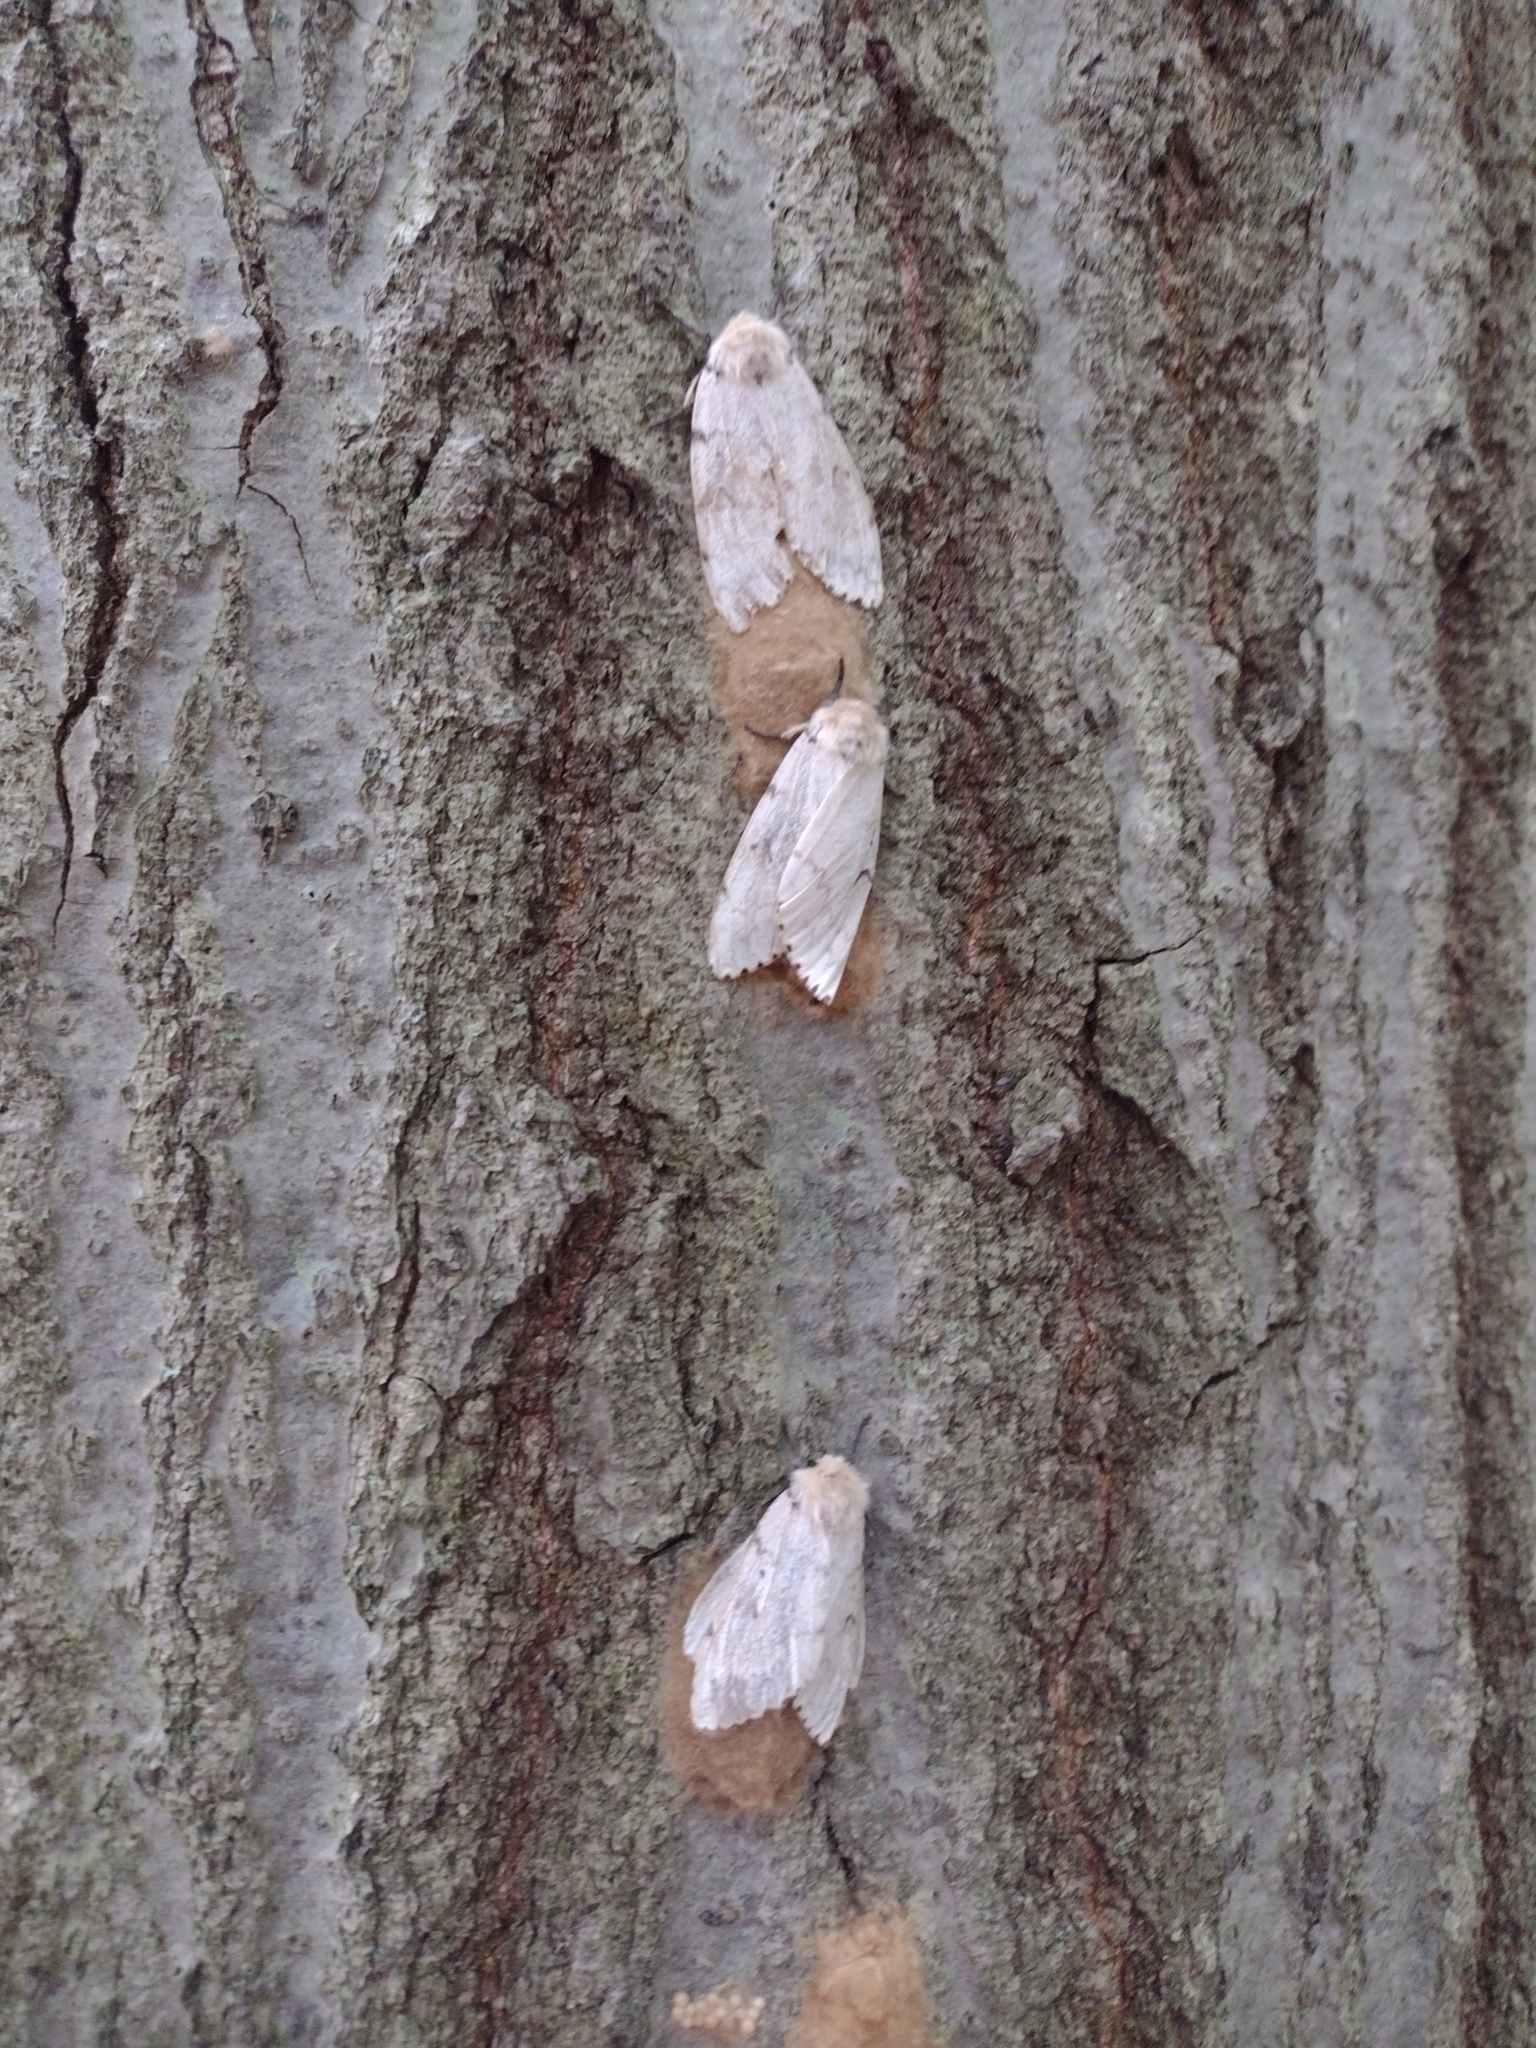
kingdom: Animalia
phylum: Arthropoda
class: Insecta
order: Lepidoptera
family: Erebidae
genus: Lymantria
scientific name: Lymantria dispar
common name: Gypsy moth
